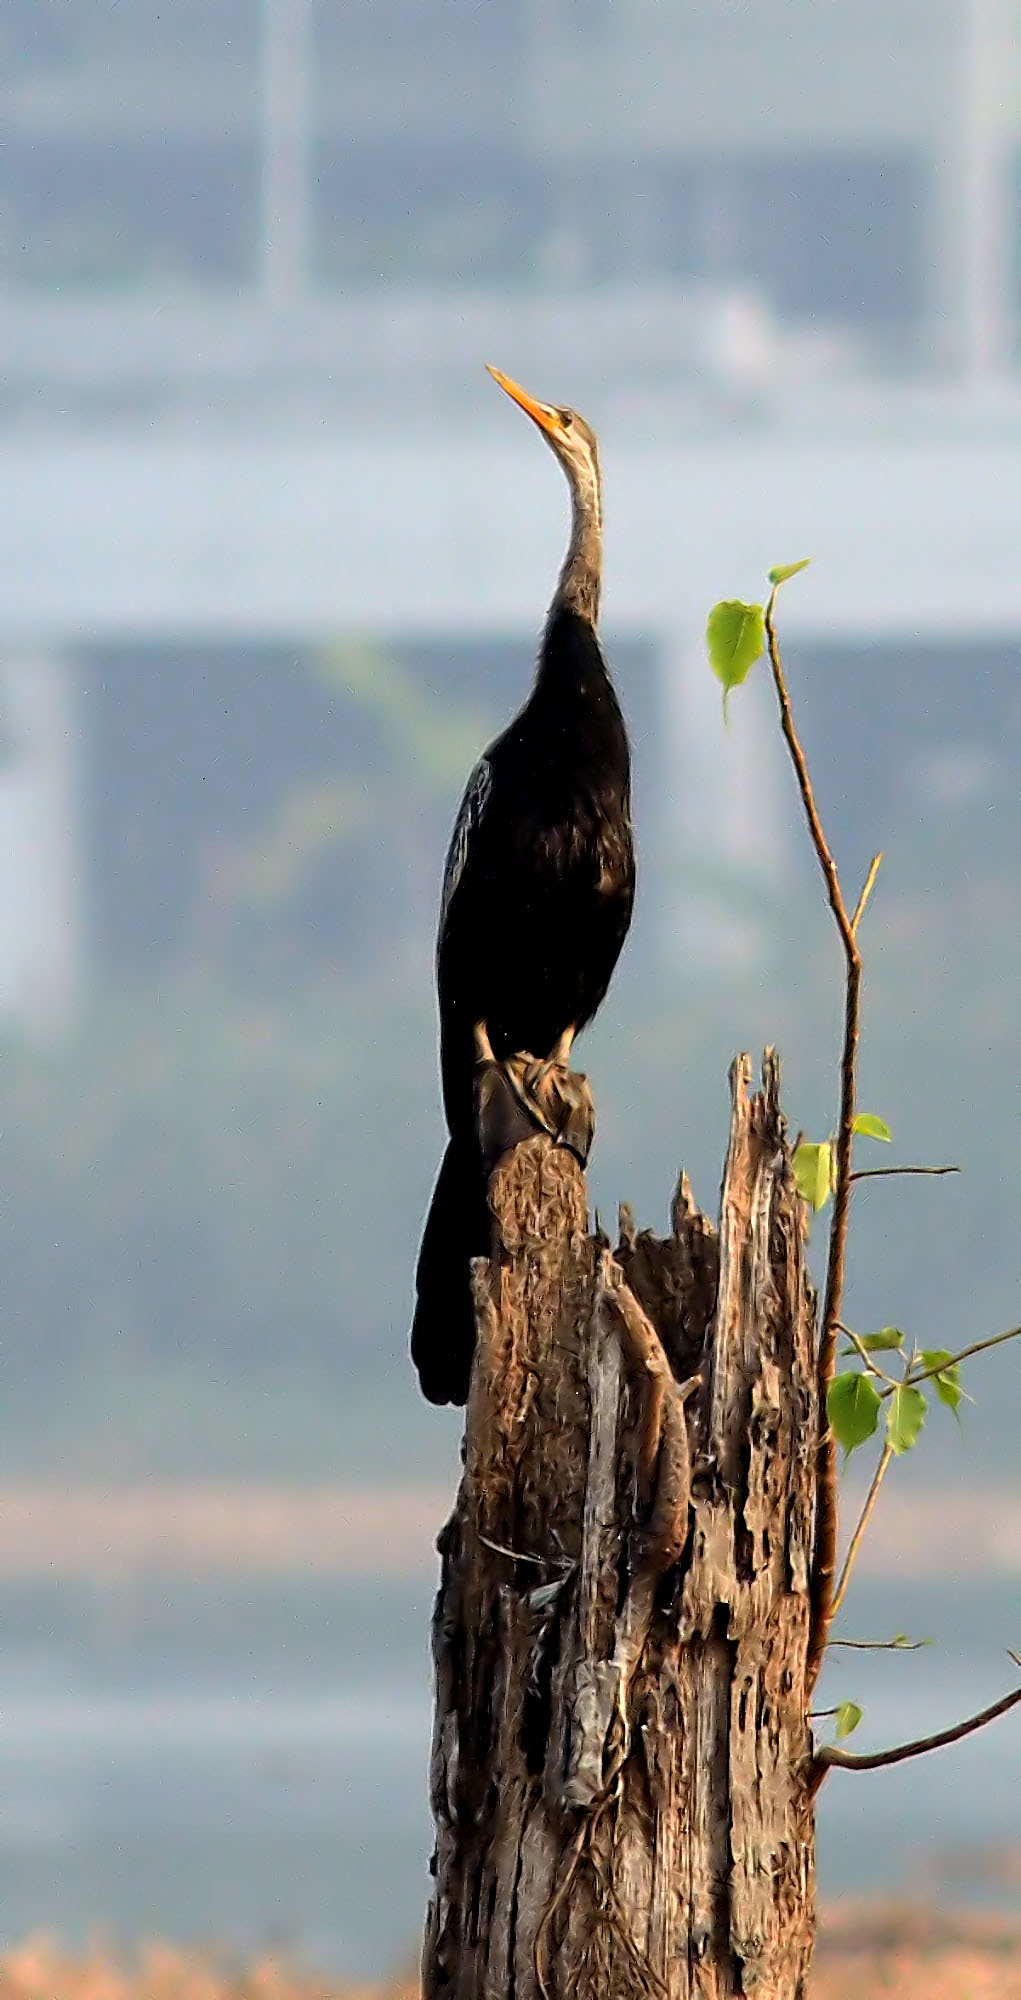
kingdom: Animalia
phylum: Chordata
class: Aves
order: Suliformes
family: Anhingidae
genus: Anhinga
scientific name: Anhinga melanogaster
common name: Oriental darter
